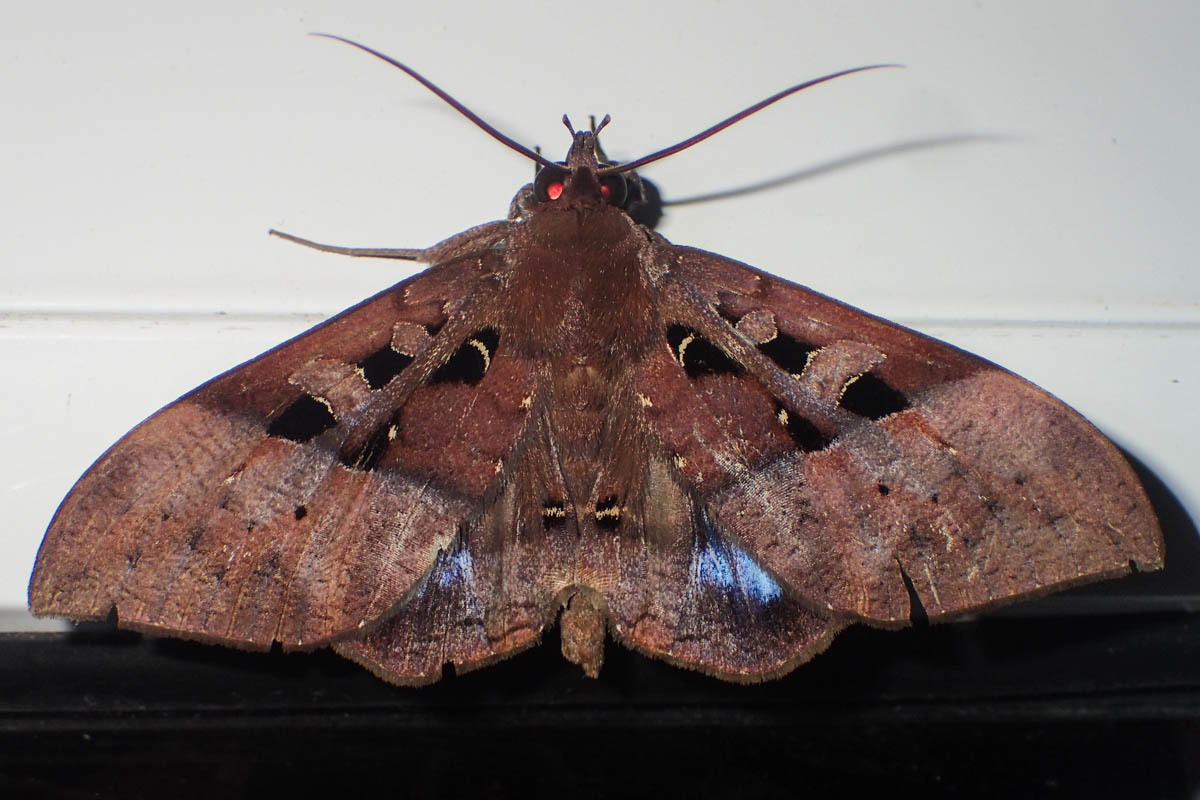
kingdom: Animalia
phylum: Arthropoda
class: Insecta
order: Lepidoptera
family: Erebidae
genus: Ischyja
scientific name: Ischyja marapok
